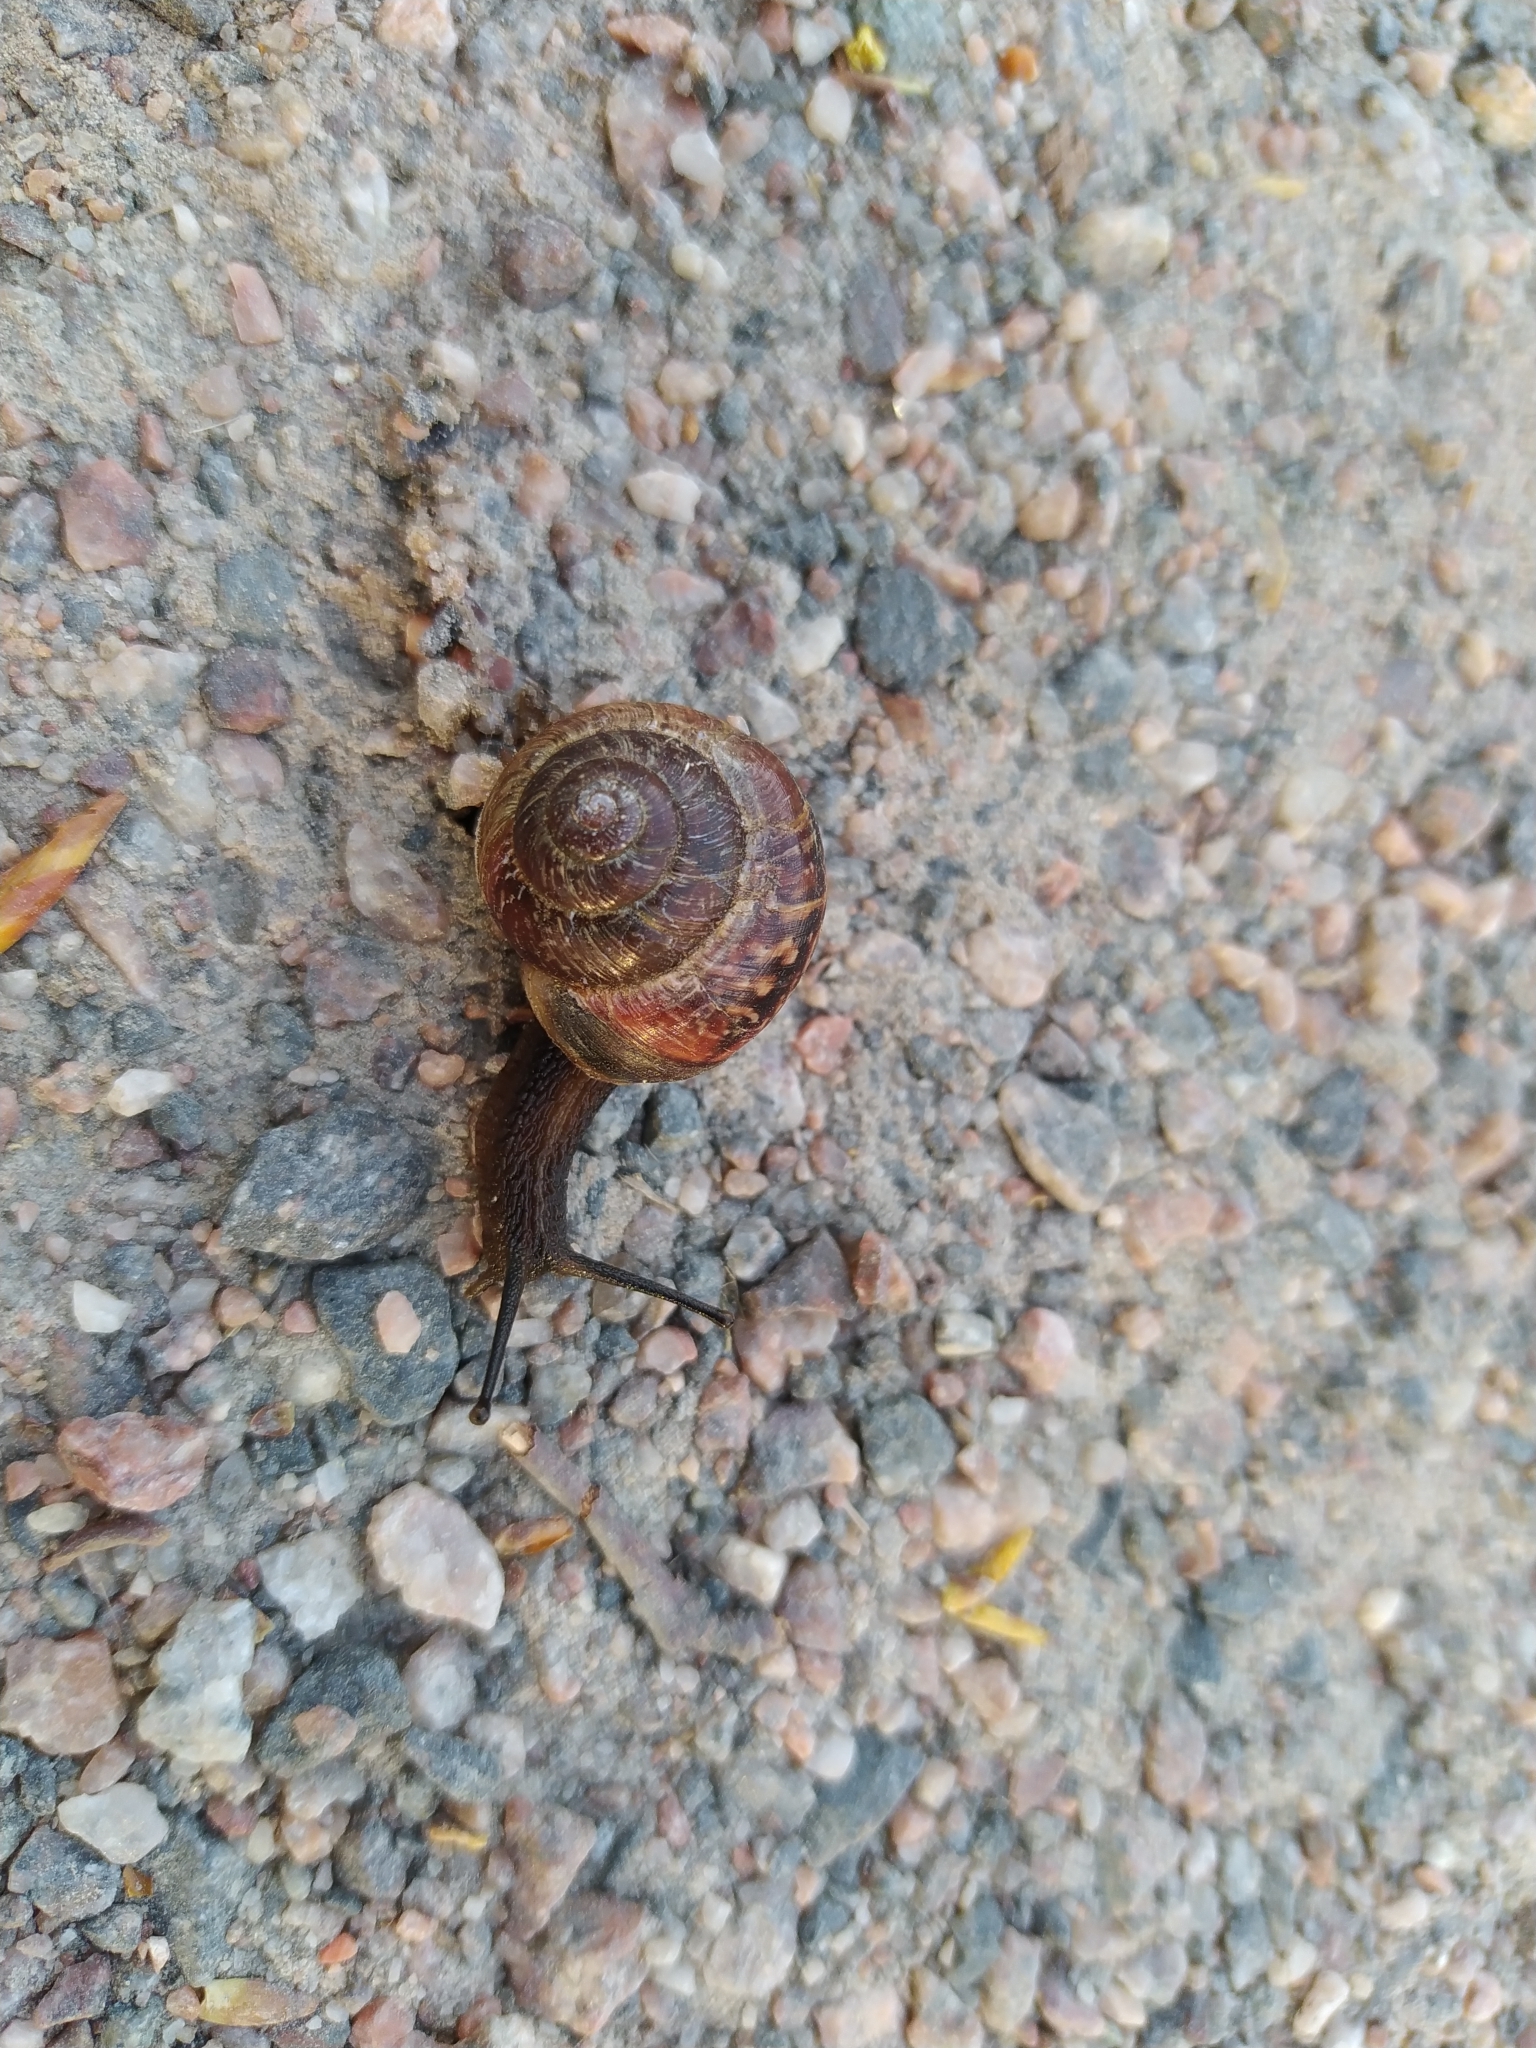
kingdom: Animalia
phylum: Mollusca
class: Gastropoda
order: Stylommatophora
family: Helicidae
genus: Arianta
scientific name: Arianta arbustorum
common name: Copse snail
